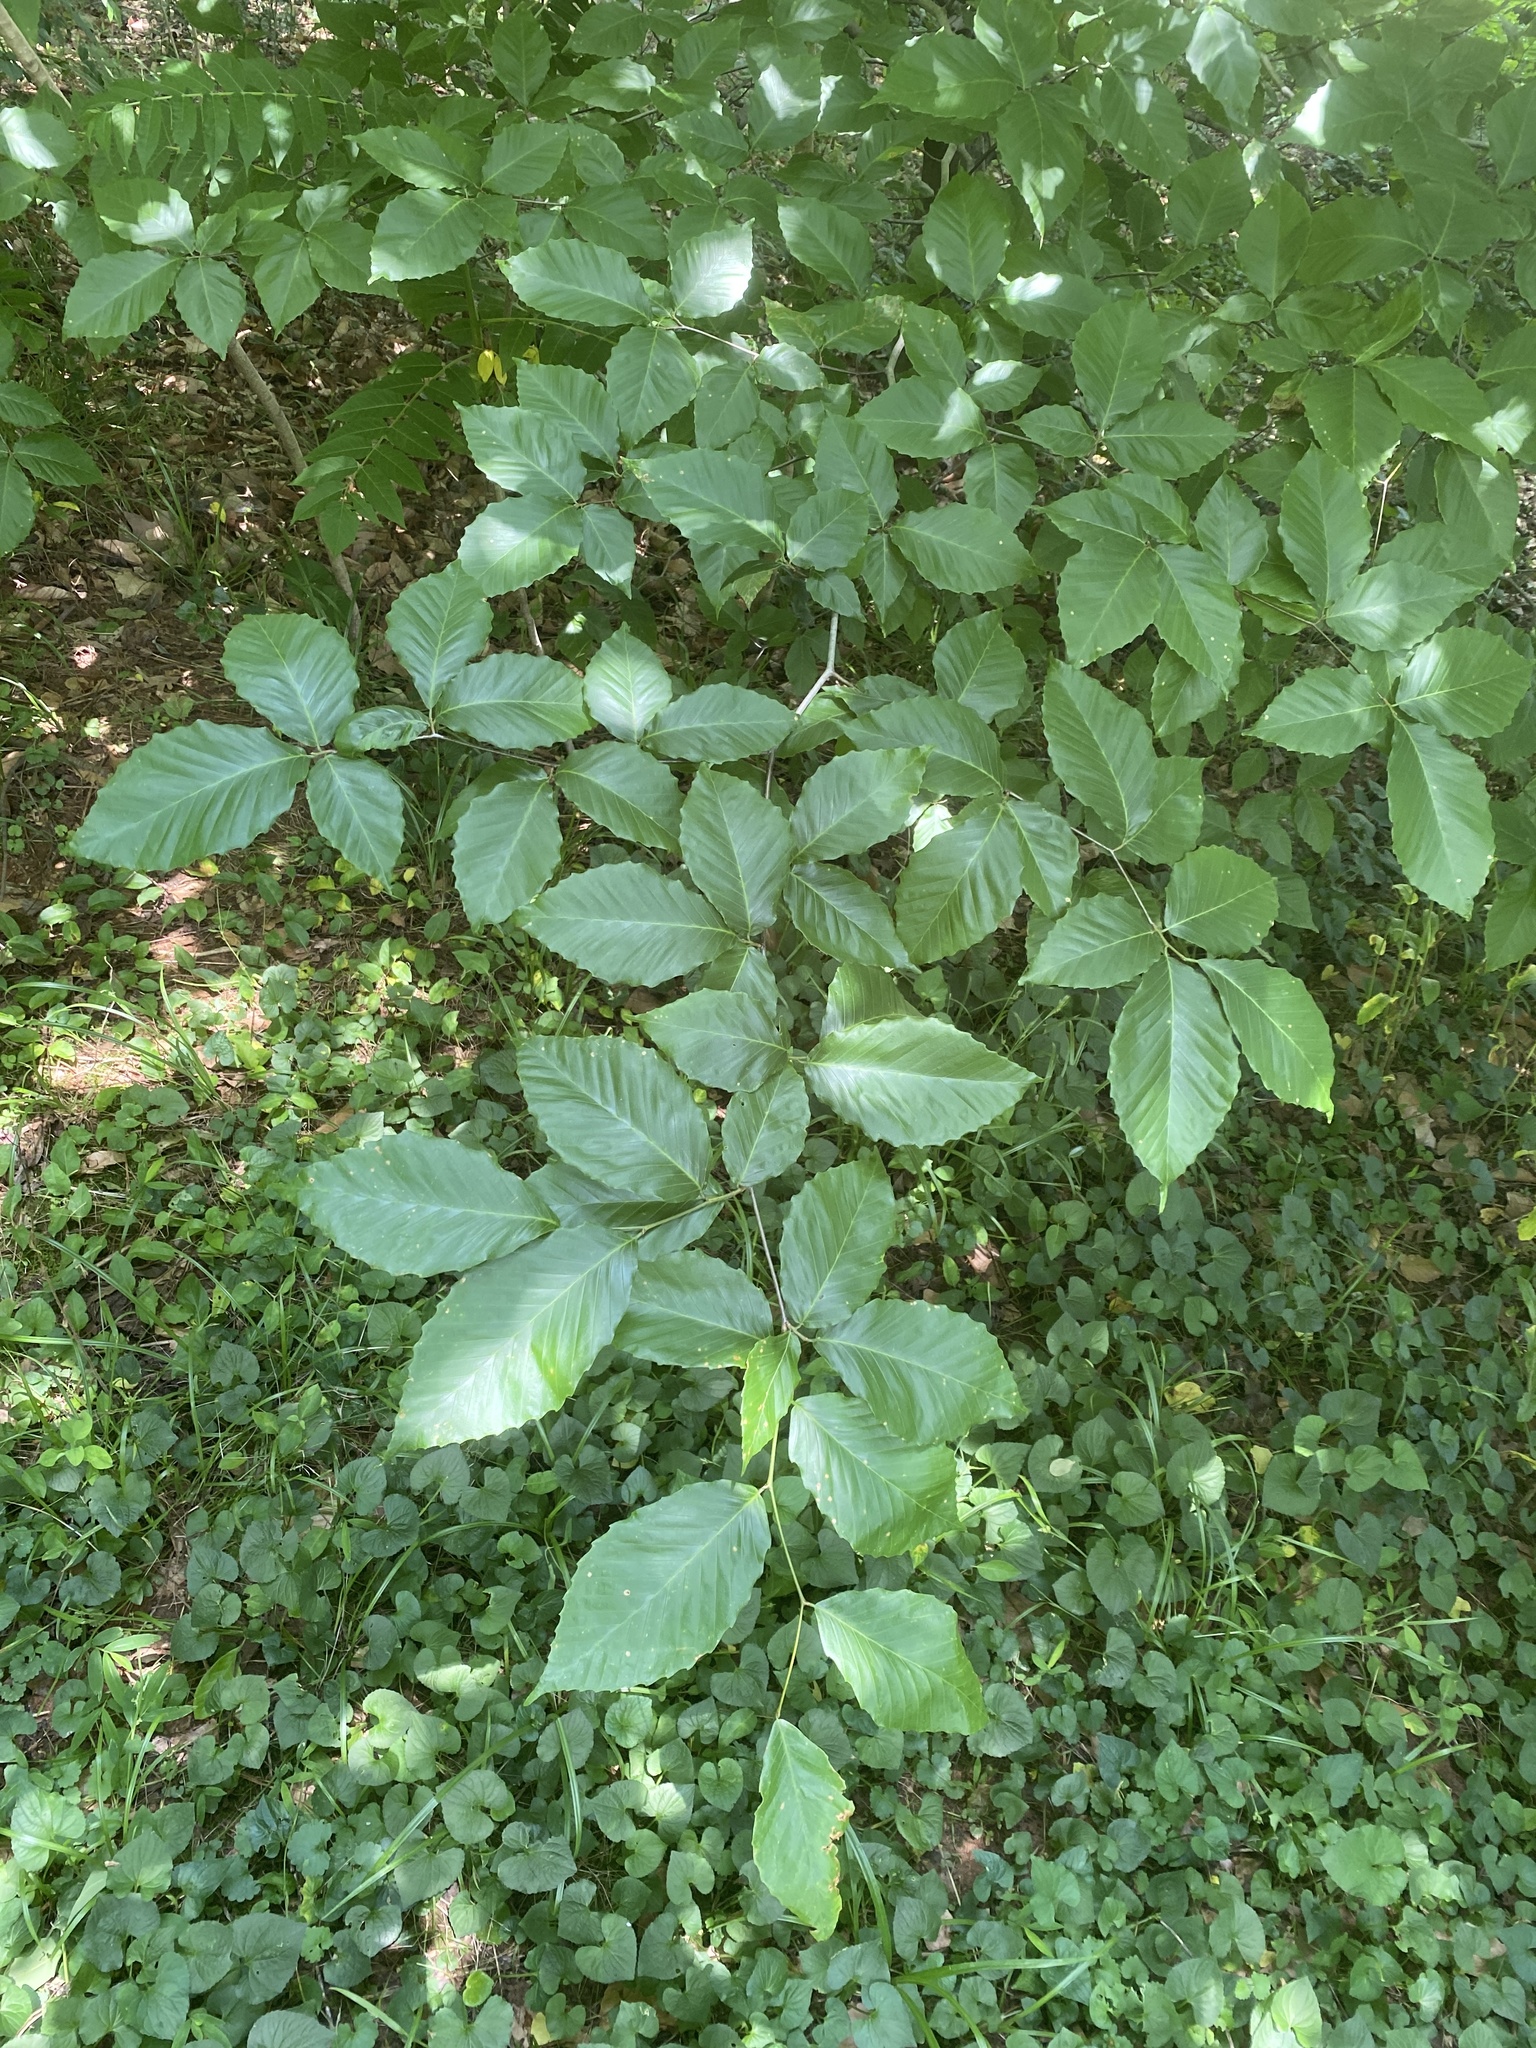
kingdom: Plantae
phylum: Tracheophyta
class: Magnoliopsida
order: Fagales
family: Fagaceae
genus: Fagus
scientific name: Fagus grandifolia
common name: American beech
